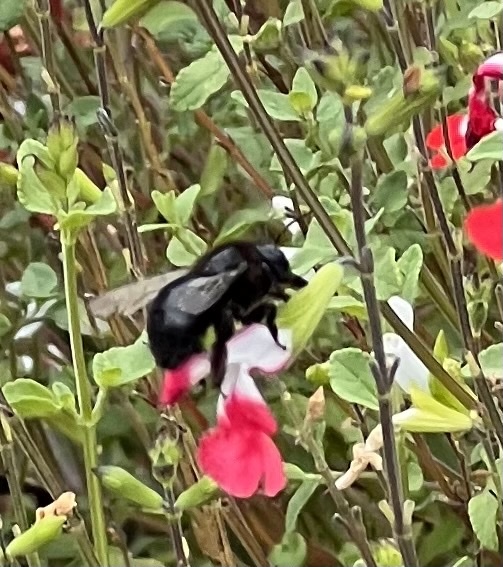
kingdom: Animalia
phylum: Arthropoda
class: Insecta
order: Hymenoptera
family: Apidae
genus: Xylocopa
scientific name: Xylocopa tabaniformis
